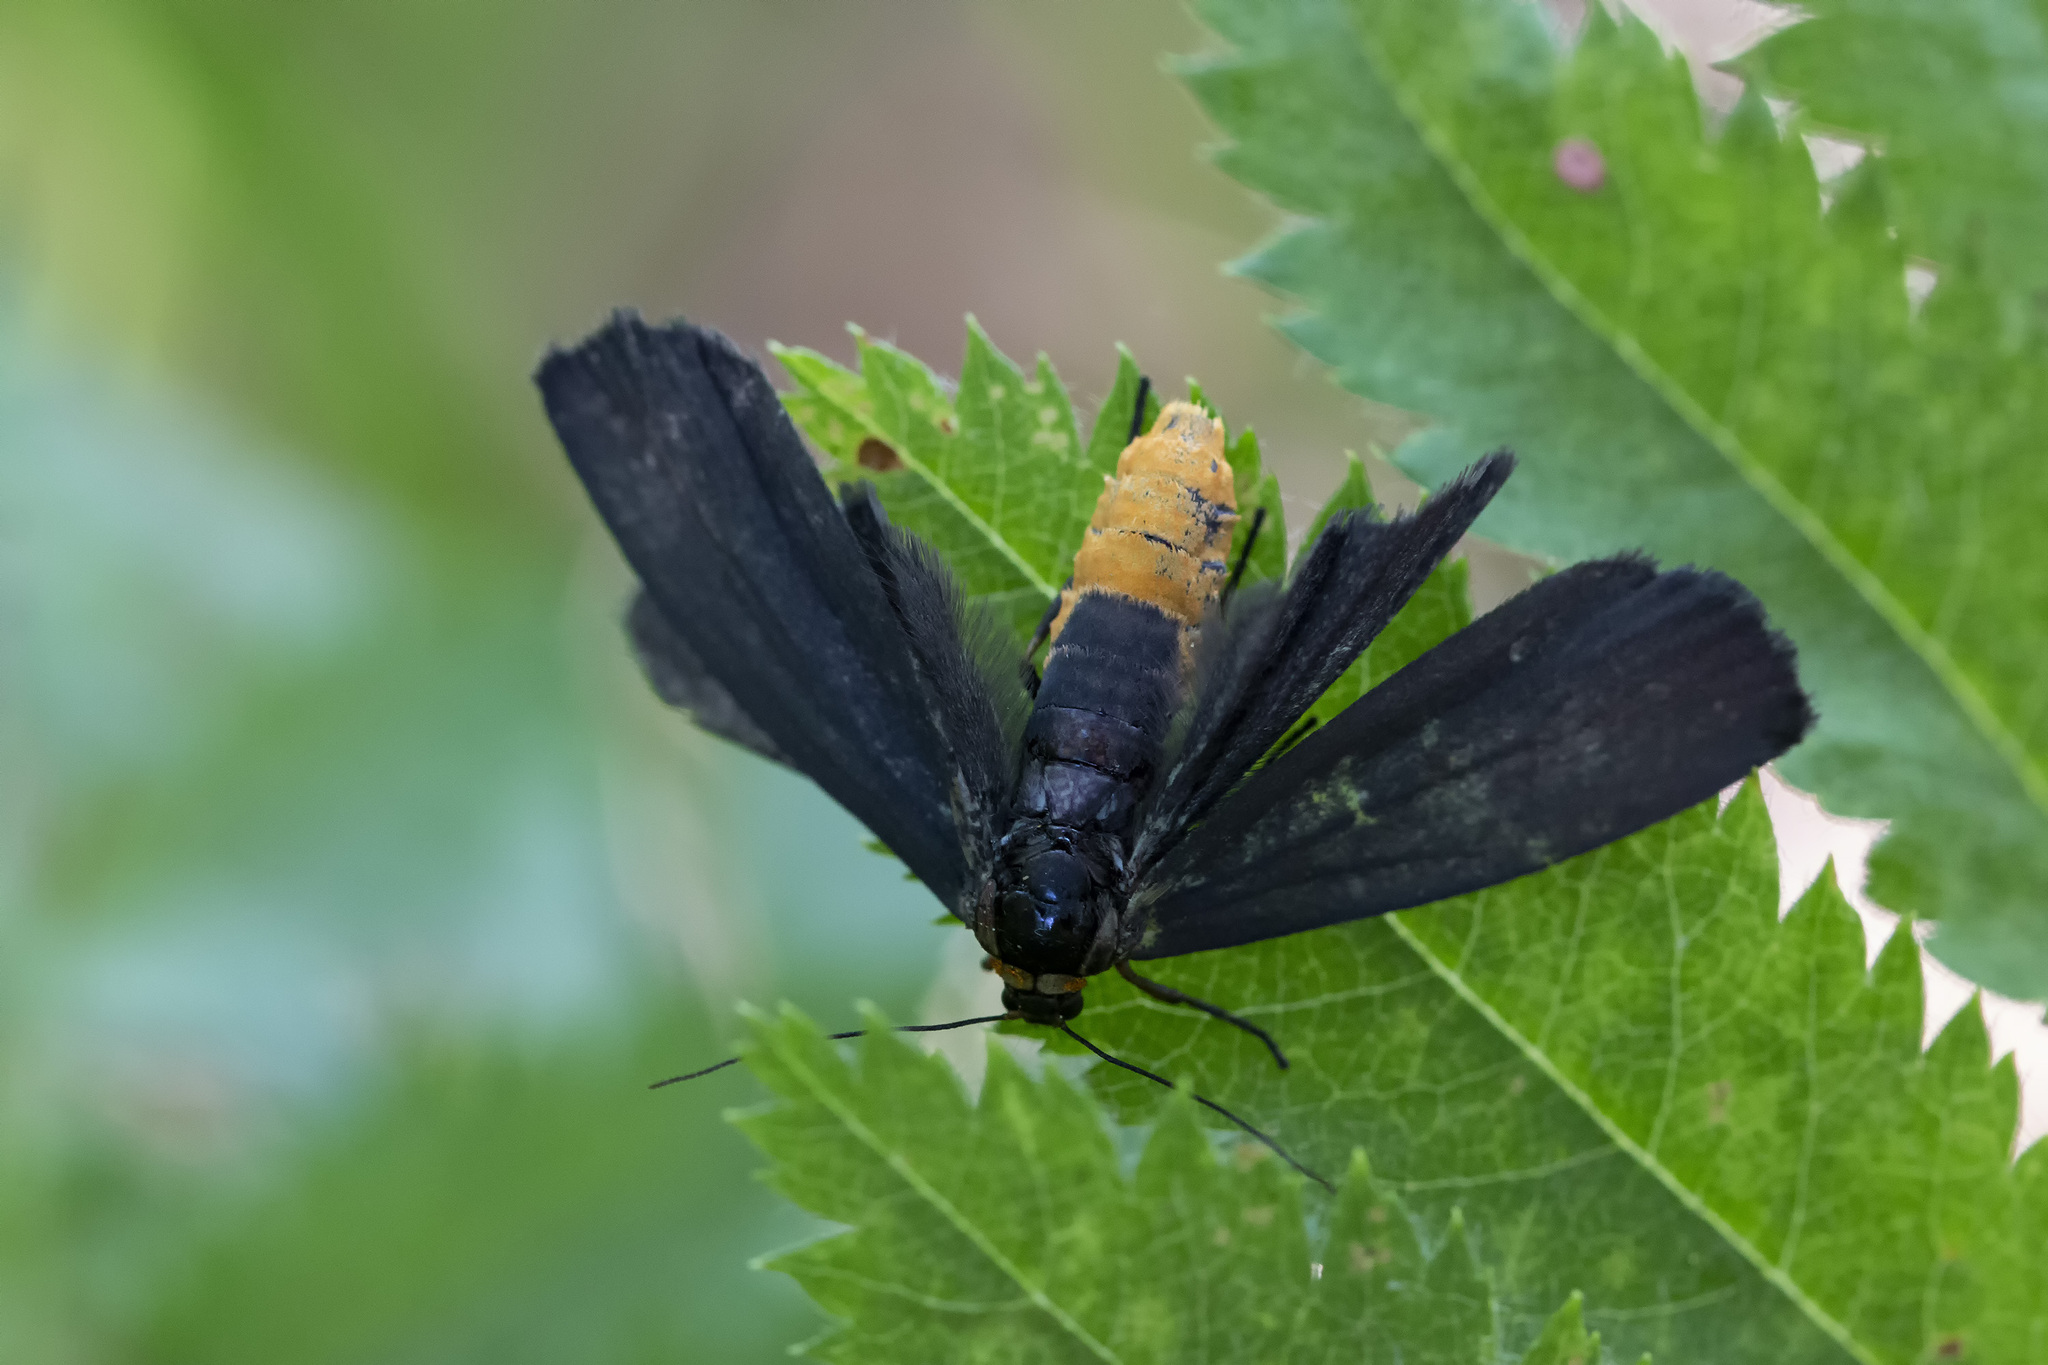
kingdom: Animalia
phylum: Arthropoda
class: Insecta
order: Lepidoptera
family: Erebidae
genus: Atolmis
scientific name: Atolmis rubricollis
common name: Red-necked footman
